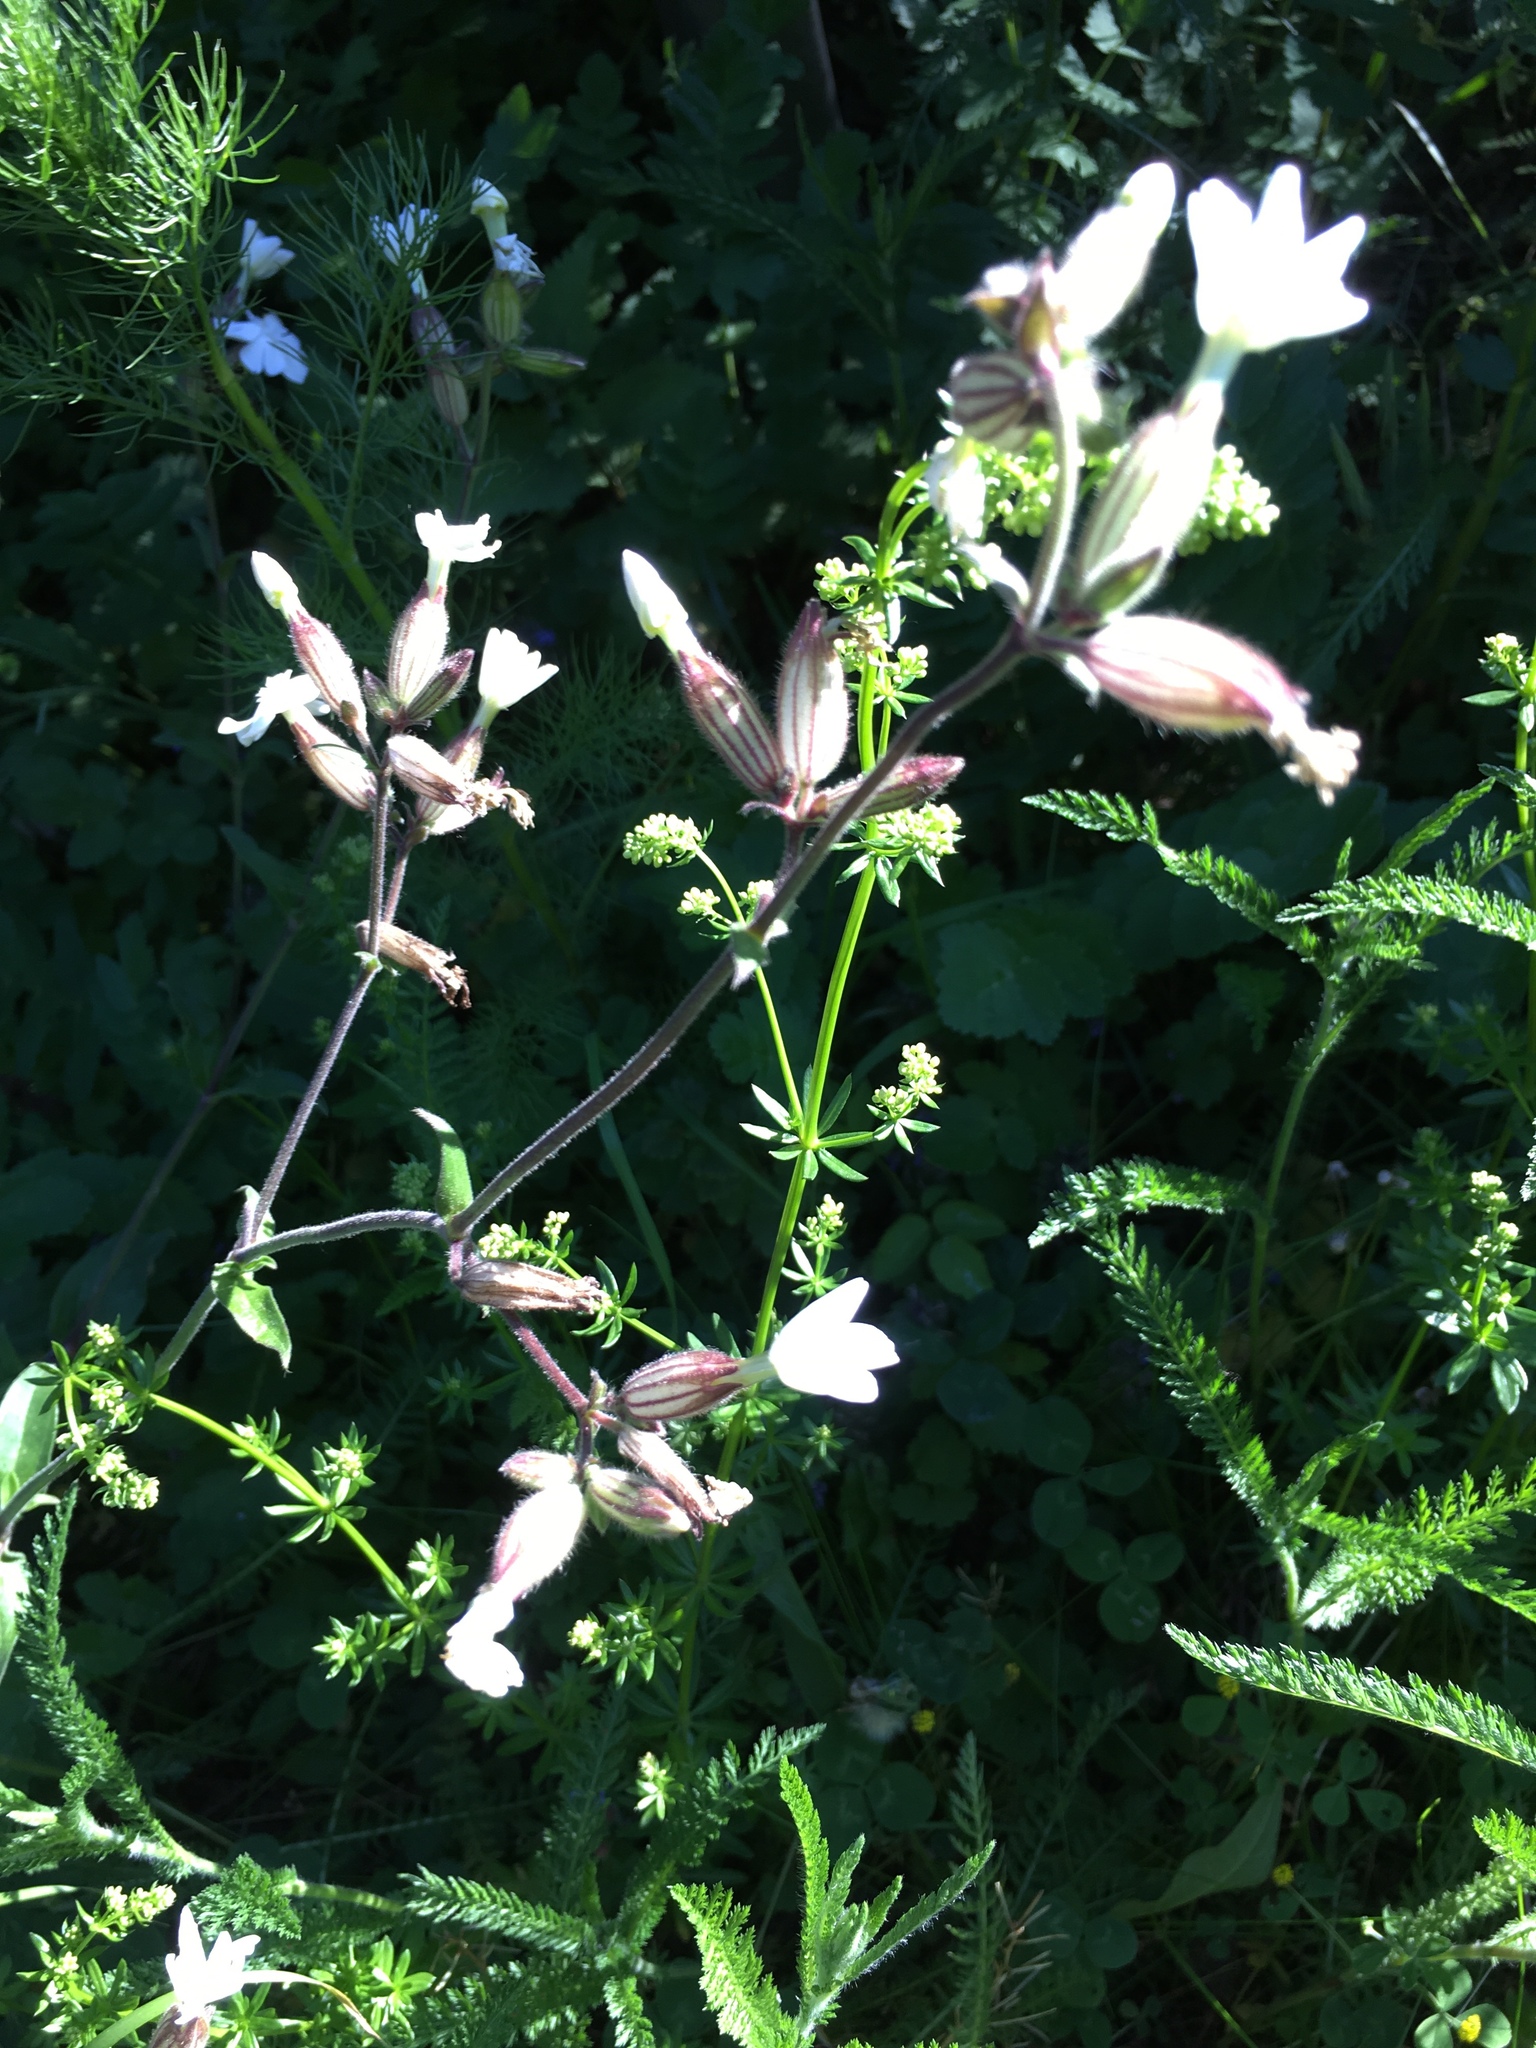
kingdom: Plantae
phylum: Tracheophyta
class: Magnoliopsida
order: Caryophyllales
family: Caryophyllaceae
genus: Silene
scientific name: Silene latifolia
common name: White campion
